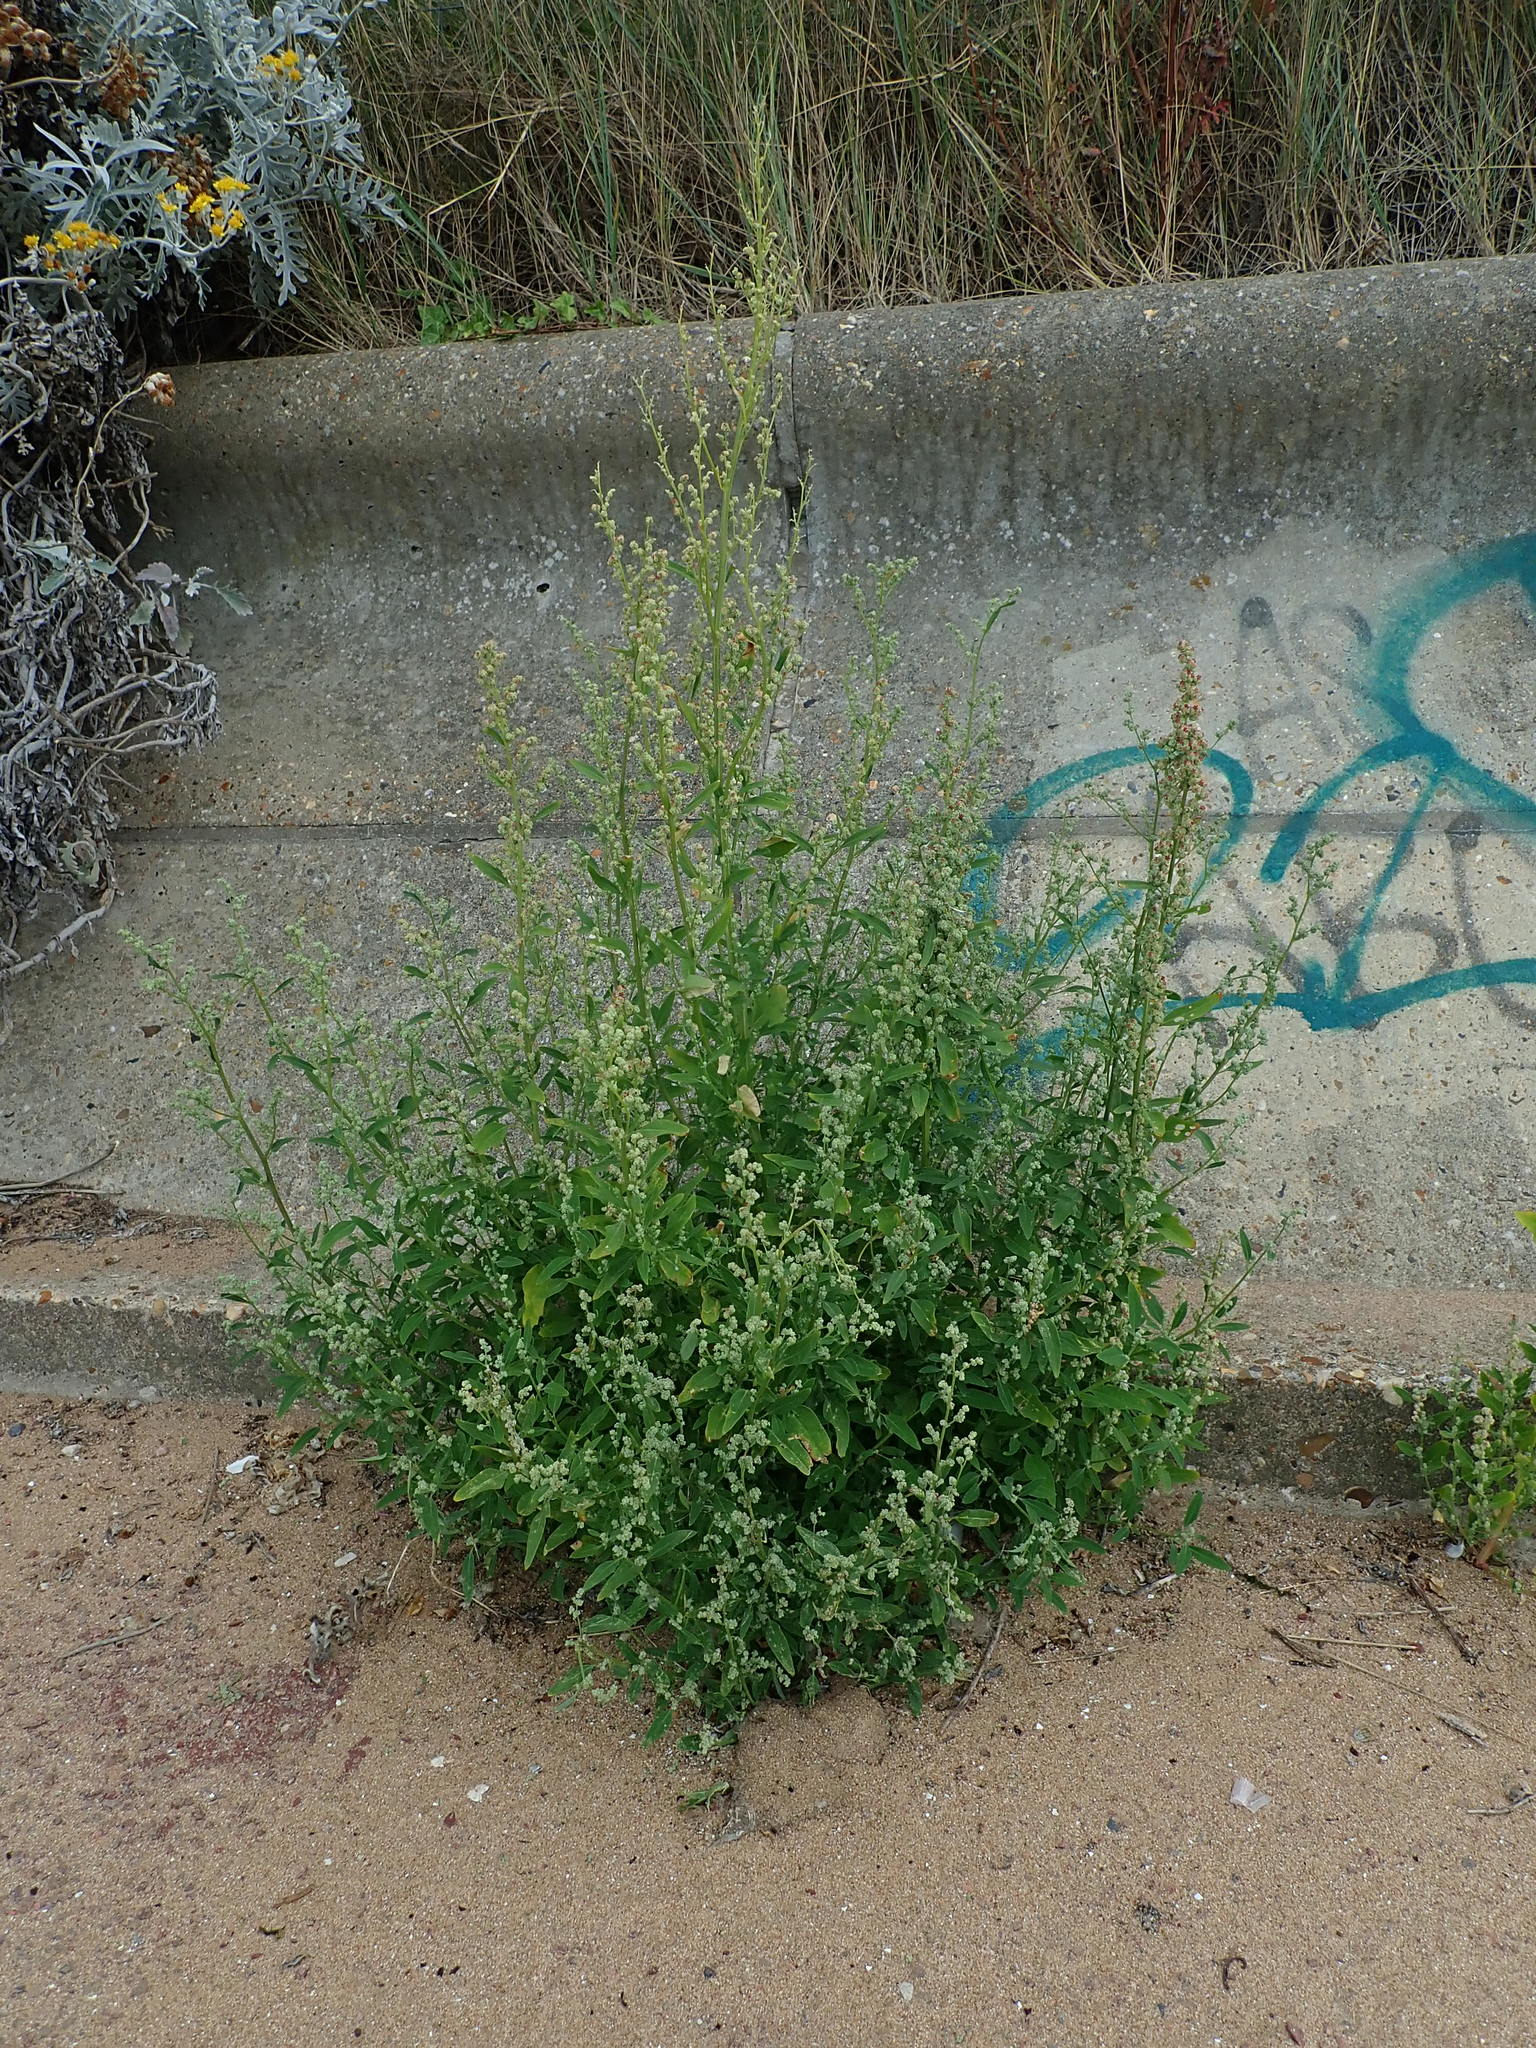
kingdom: Plantae
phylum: Tracheophyta
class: Magnoliopsida
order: Caryophyllales
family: Amaranthaceae
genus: Chenopodium
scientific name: Chenopodium album
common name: Fat-hen
